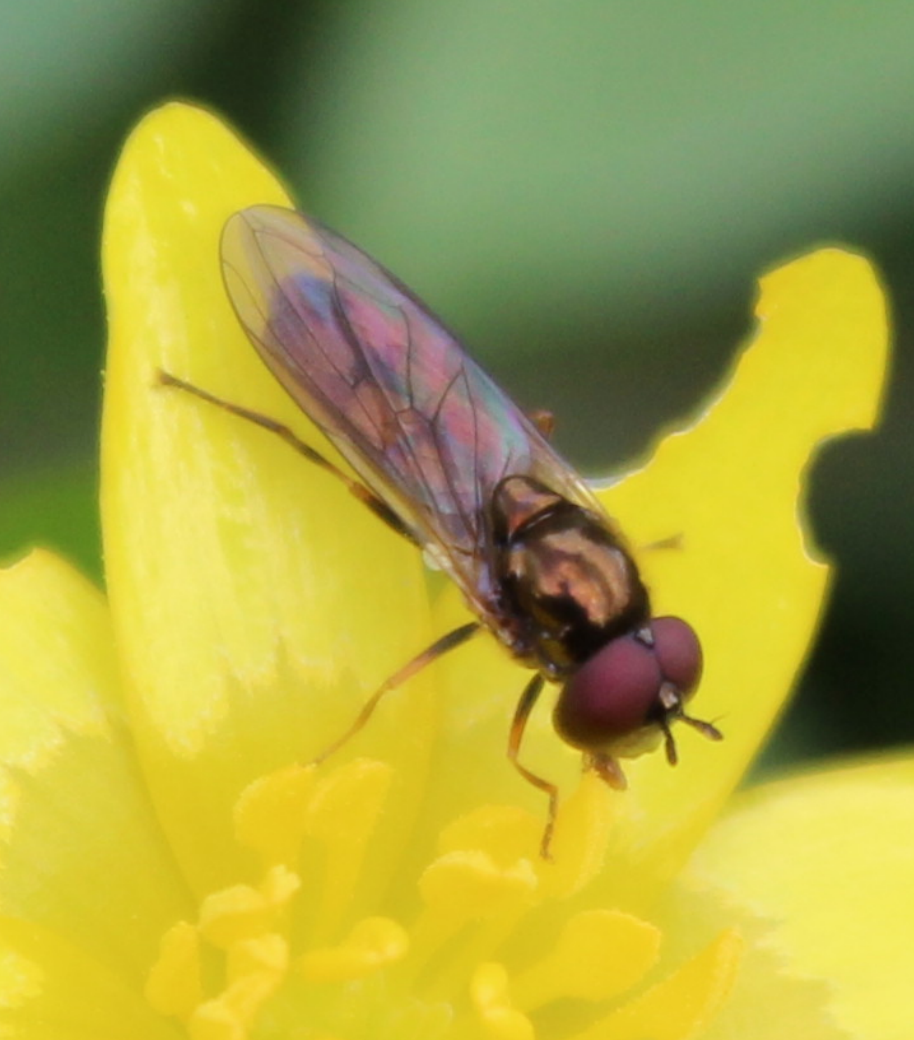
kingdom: Animalia
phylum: Arthropoda
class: Insecta
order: Diptera
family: Syrphidae
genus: Melanostoma
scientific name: Melanostoma mellina
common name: Hover fly
